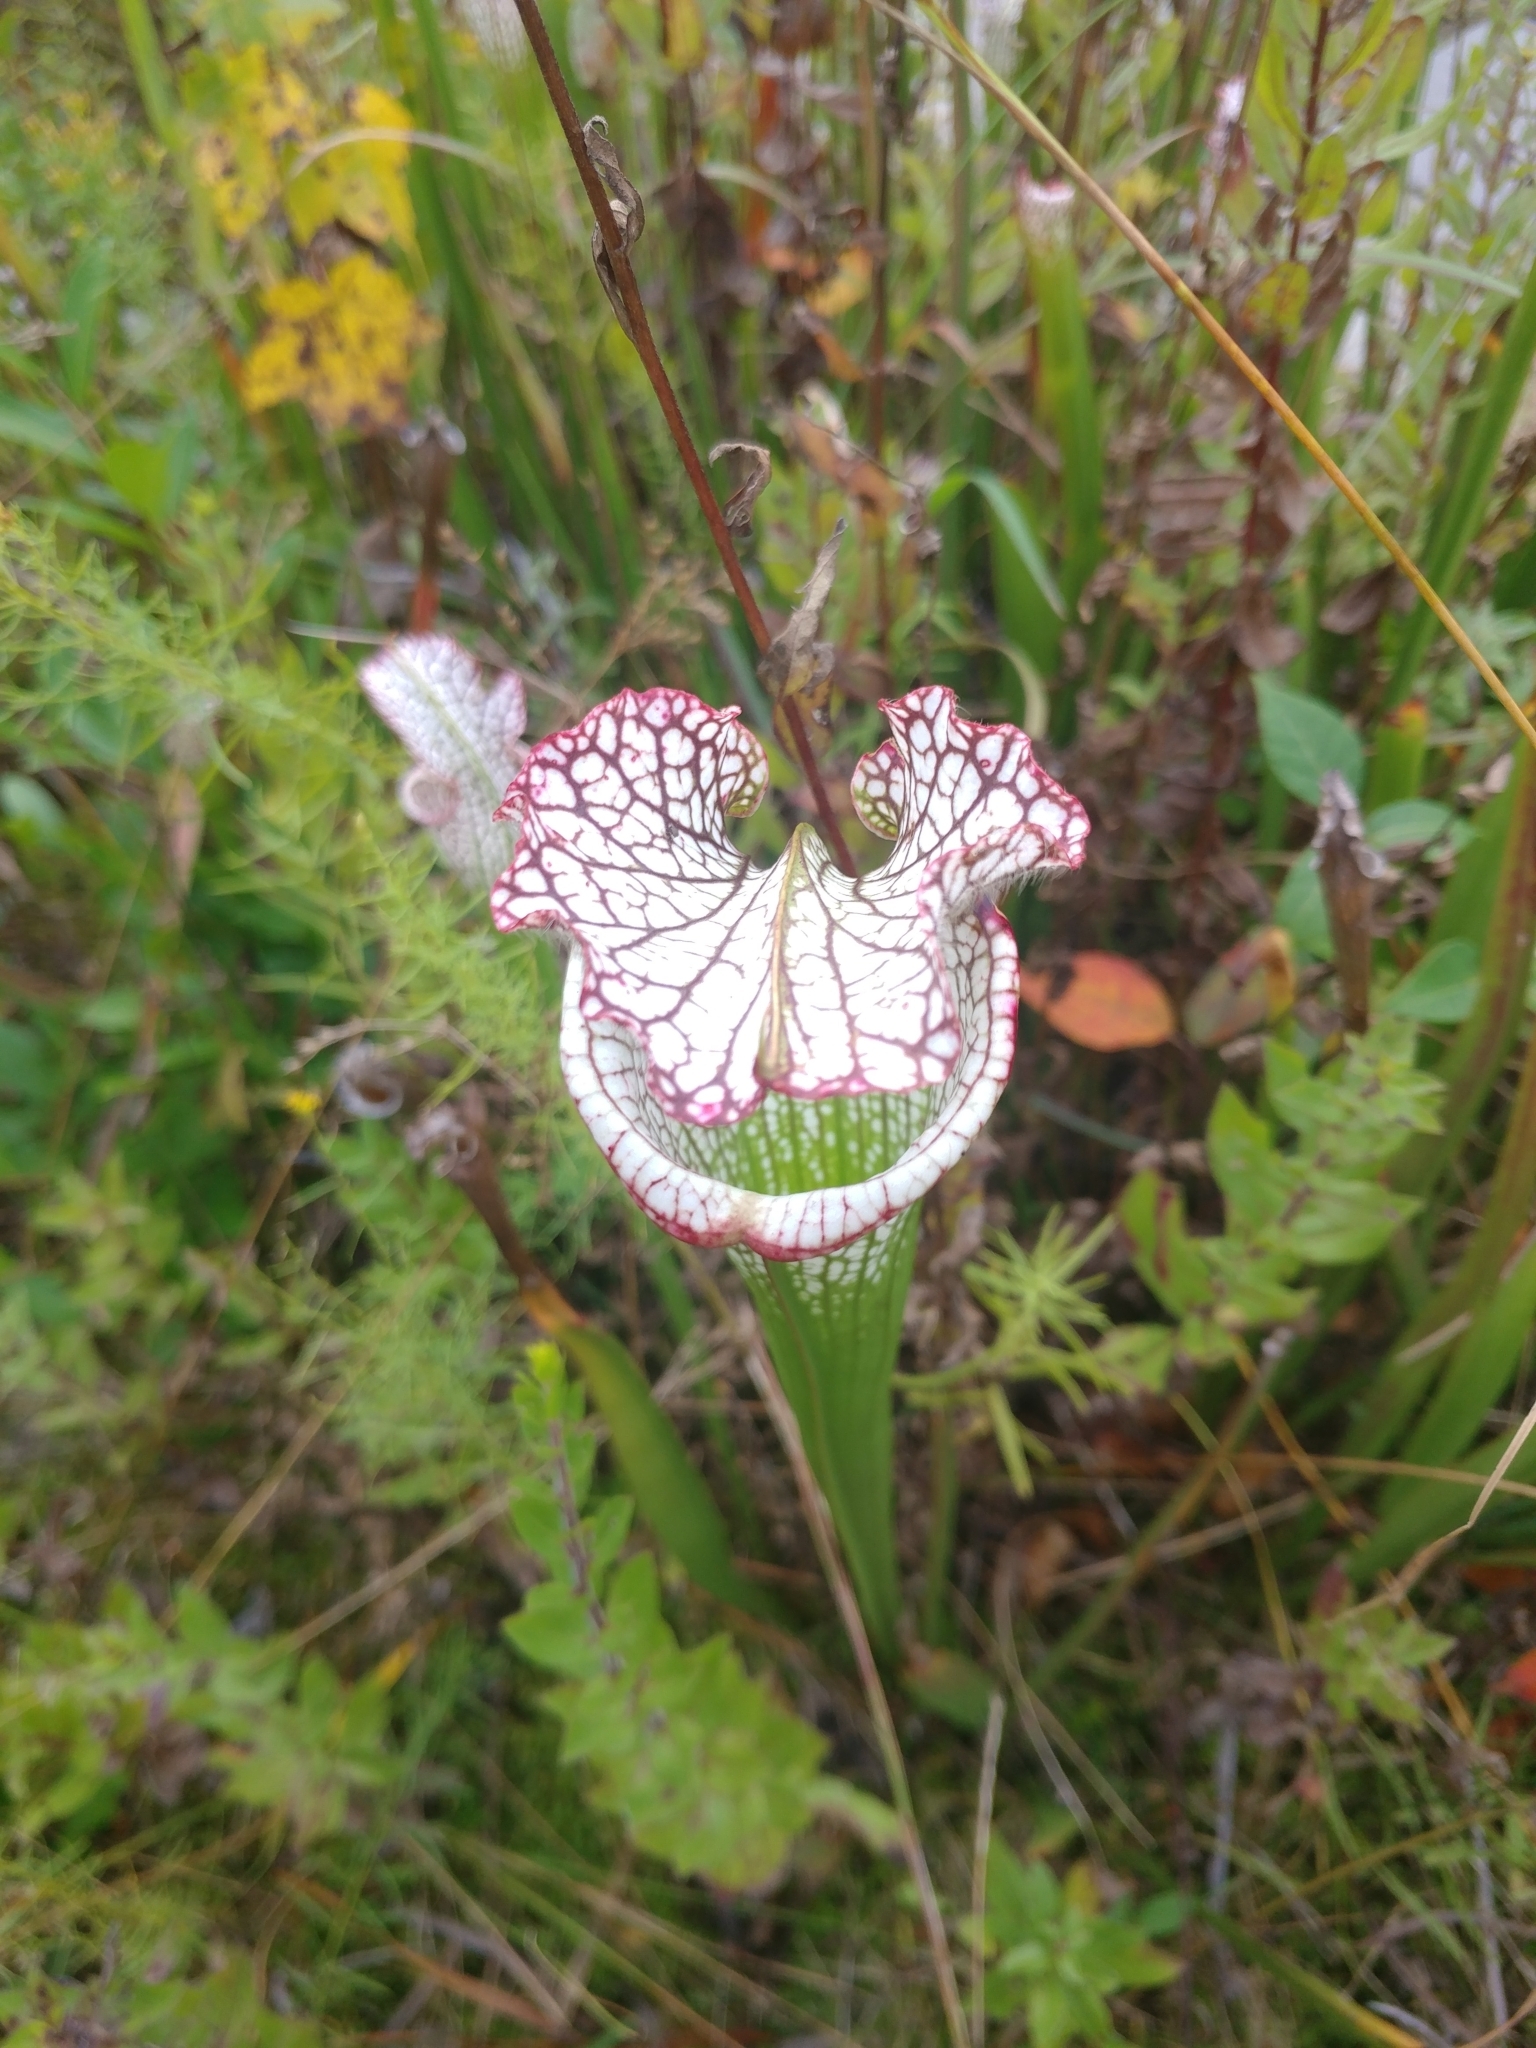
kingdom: Plantae
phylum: Tracheophyta
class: Magnoliopsida
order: Ericales
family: Sarraceniaceae
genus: Sarracenia
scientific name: Sarracenia leucophylla
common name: Purple trumpetleaf
